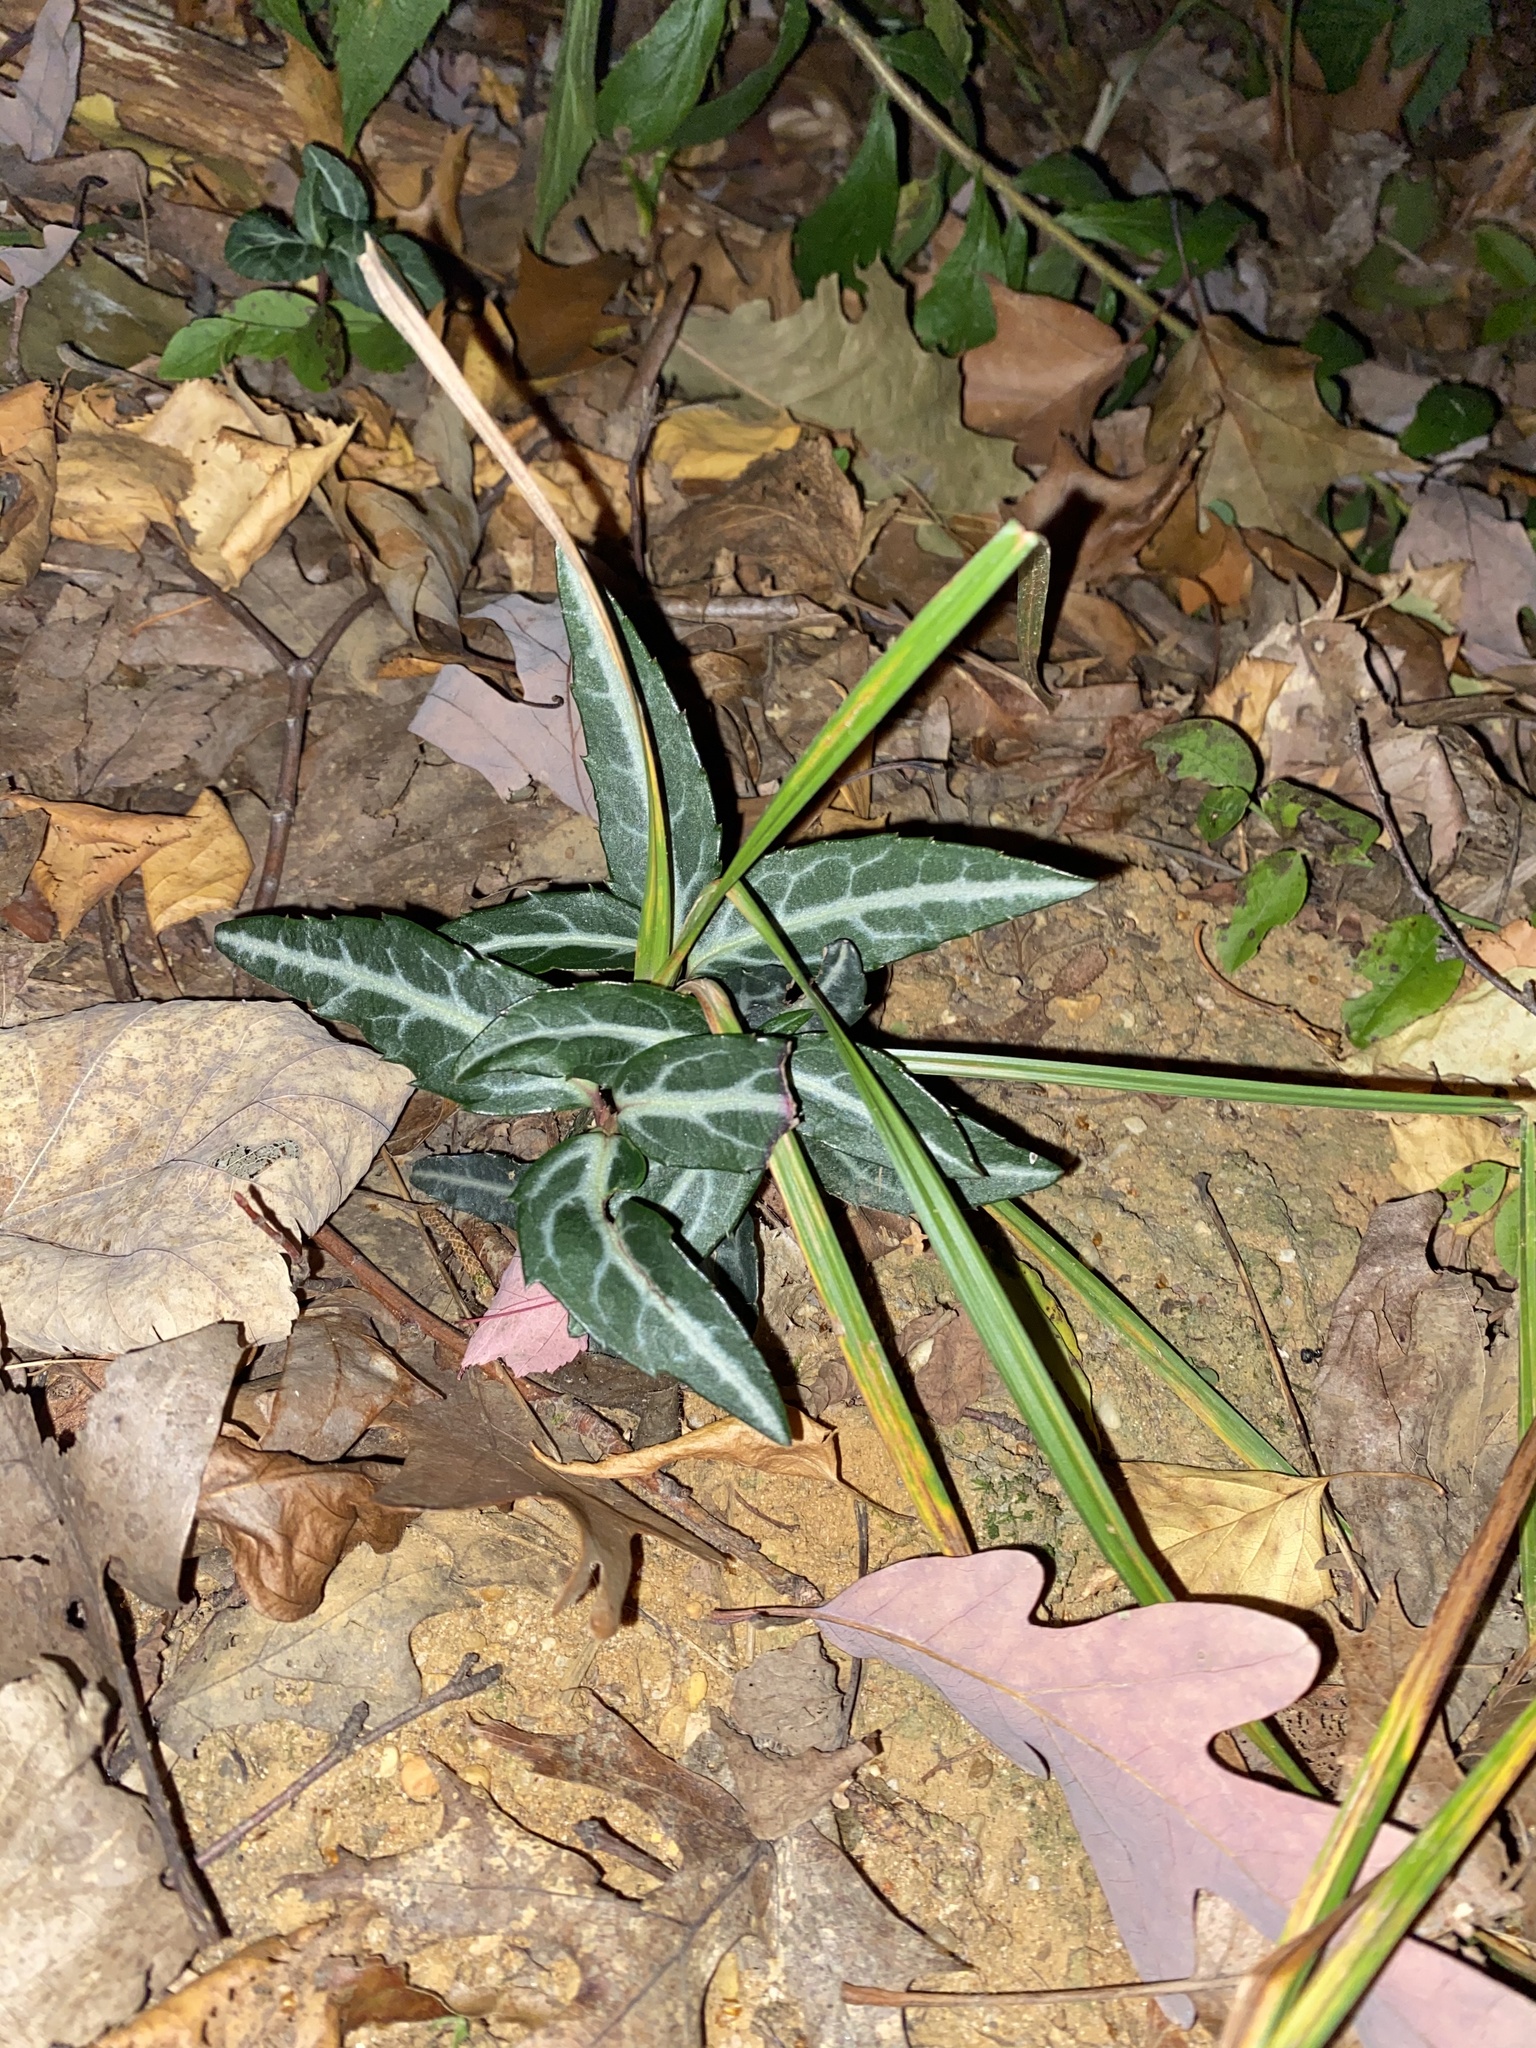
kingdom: Plantae
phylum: Tracheophyta
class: Magnoliopsida
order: Ericales
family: Ericaceae
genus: Chimaphila
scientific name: Chimaphila maculata
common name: Spotted pipsissewa
